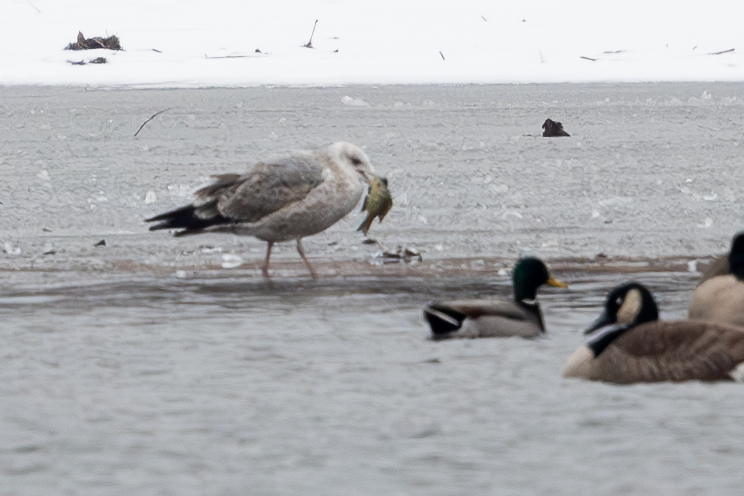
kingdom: Animalia
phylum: Chordata
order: Perciformes
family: Centrarchidae
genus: Lepomis
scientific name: Lepomis
